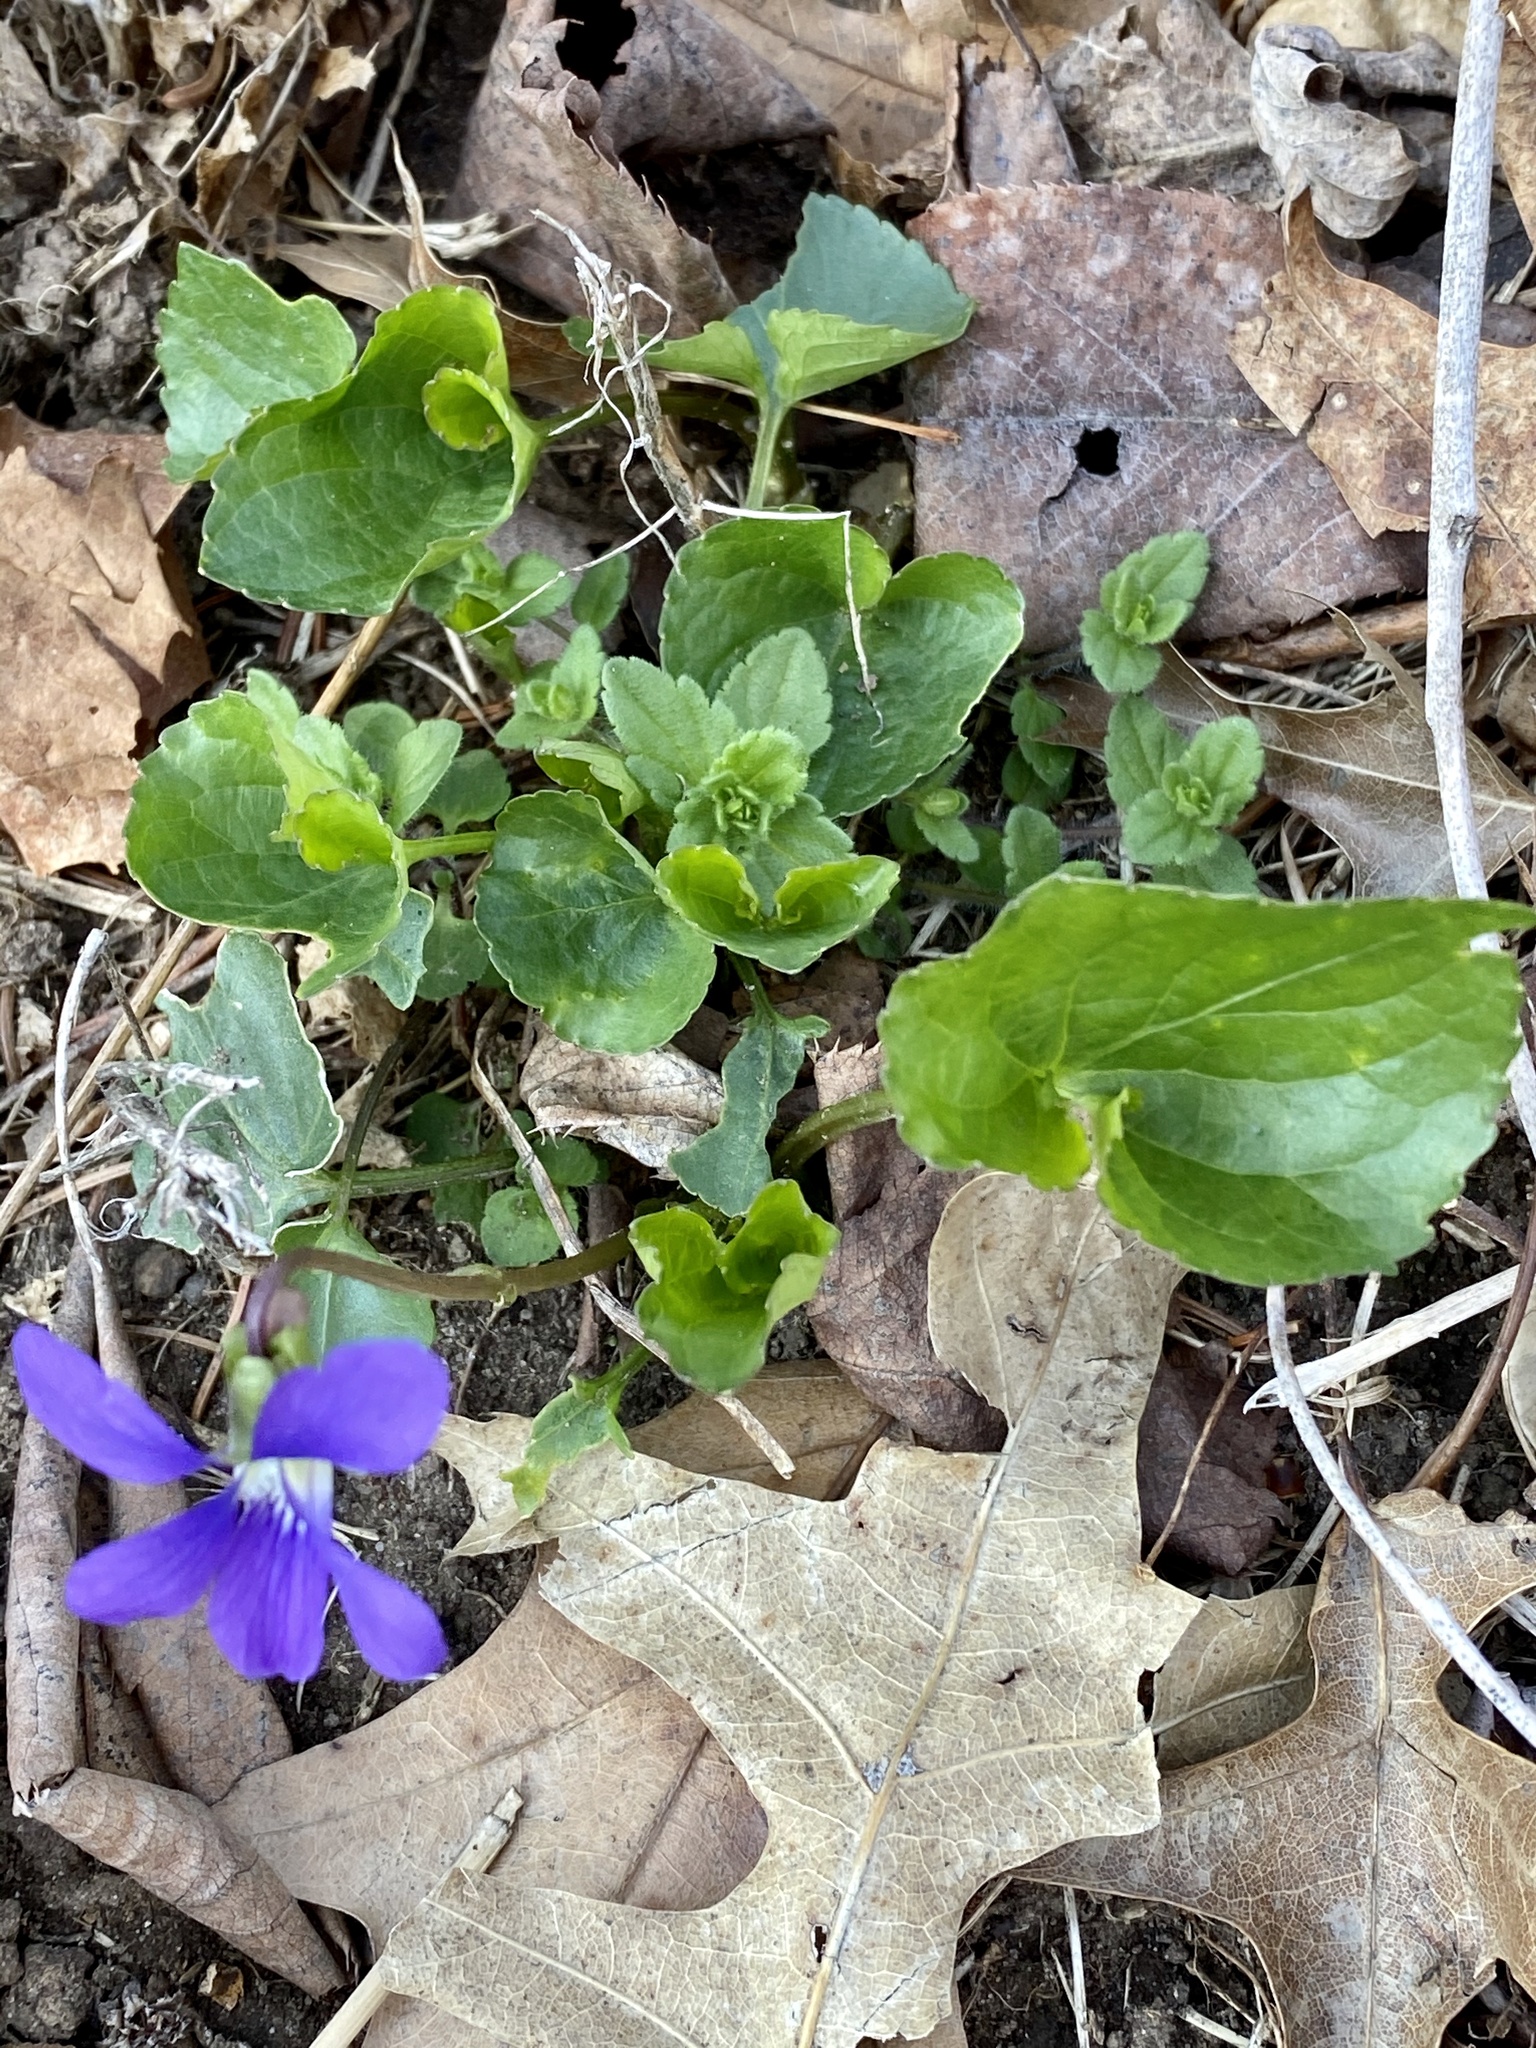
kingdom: Plantae
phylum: Tracheophyta
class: Magnoliopsida
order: Malpighiales
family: Violaceae
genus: Viola
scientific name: Viola sororia
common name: Dooryard violet
